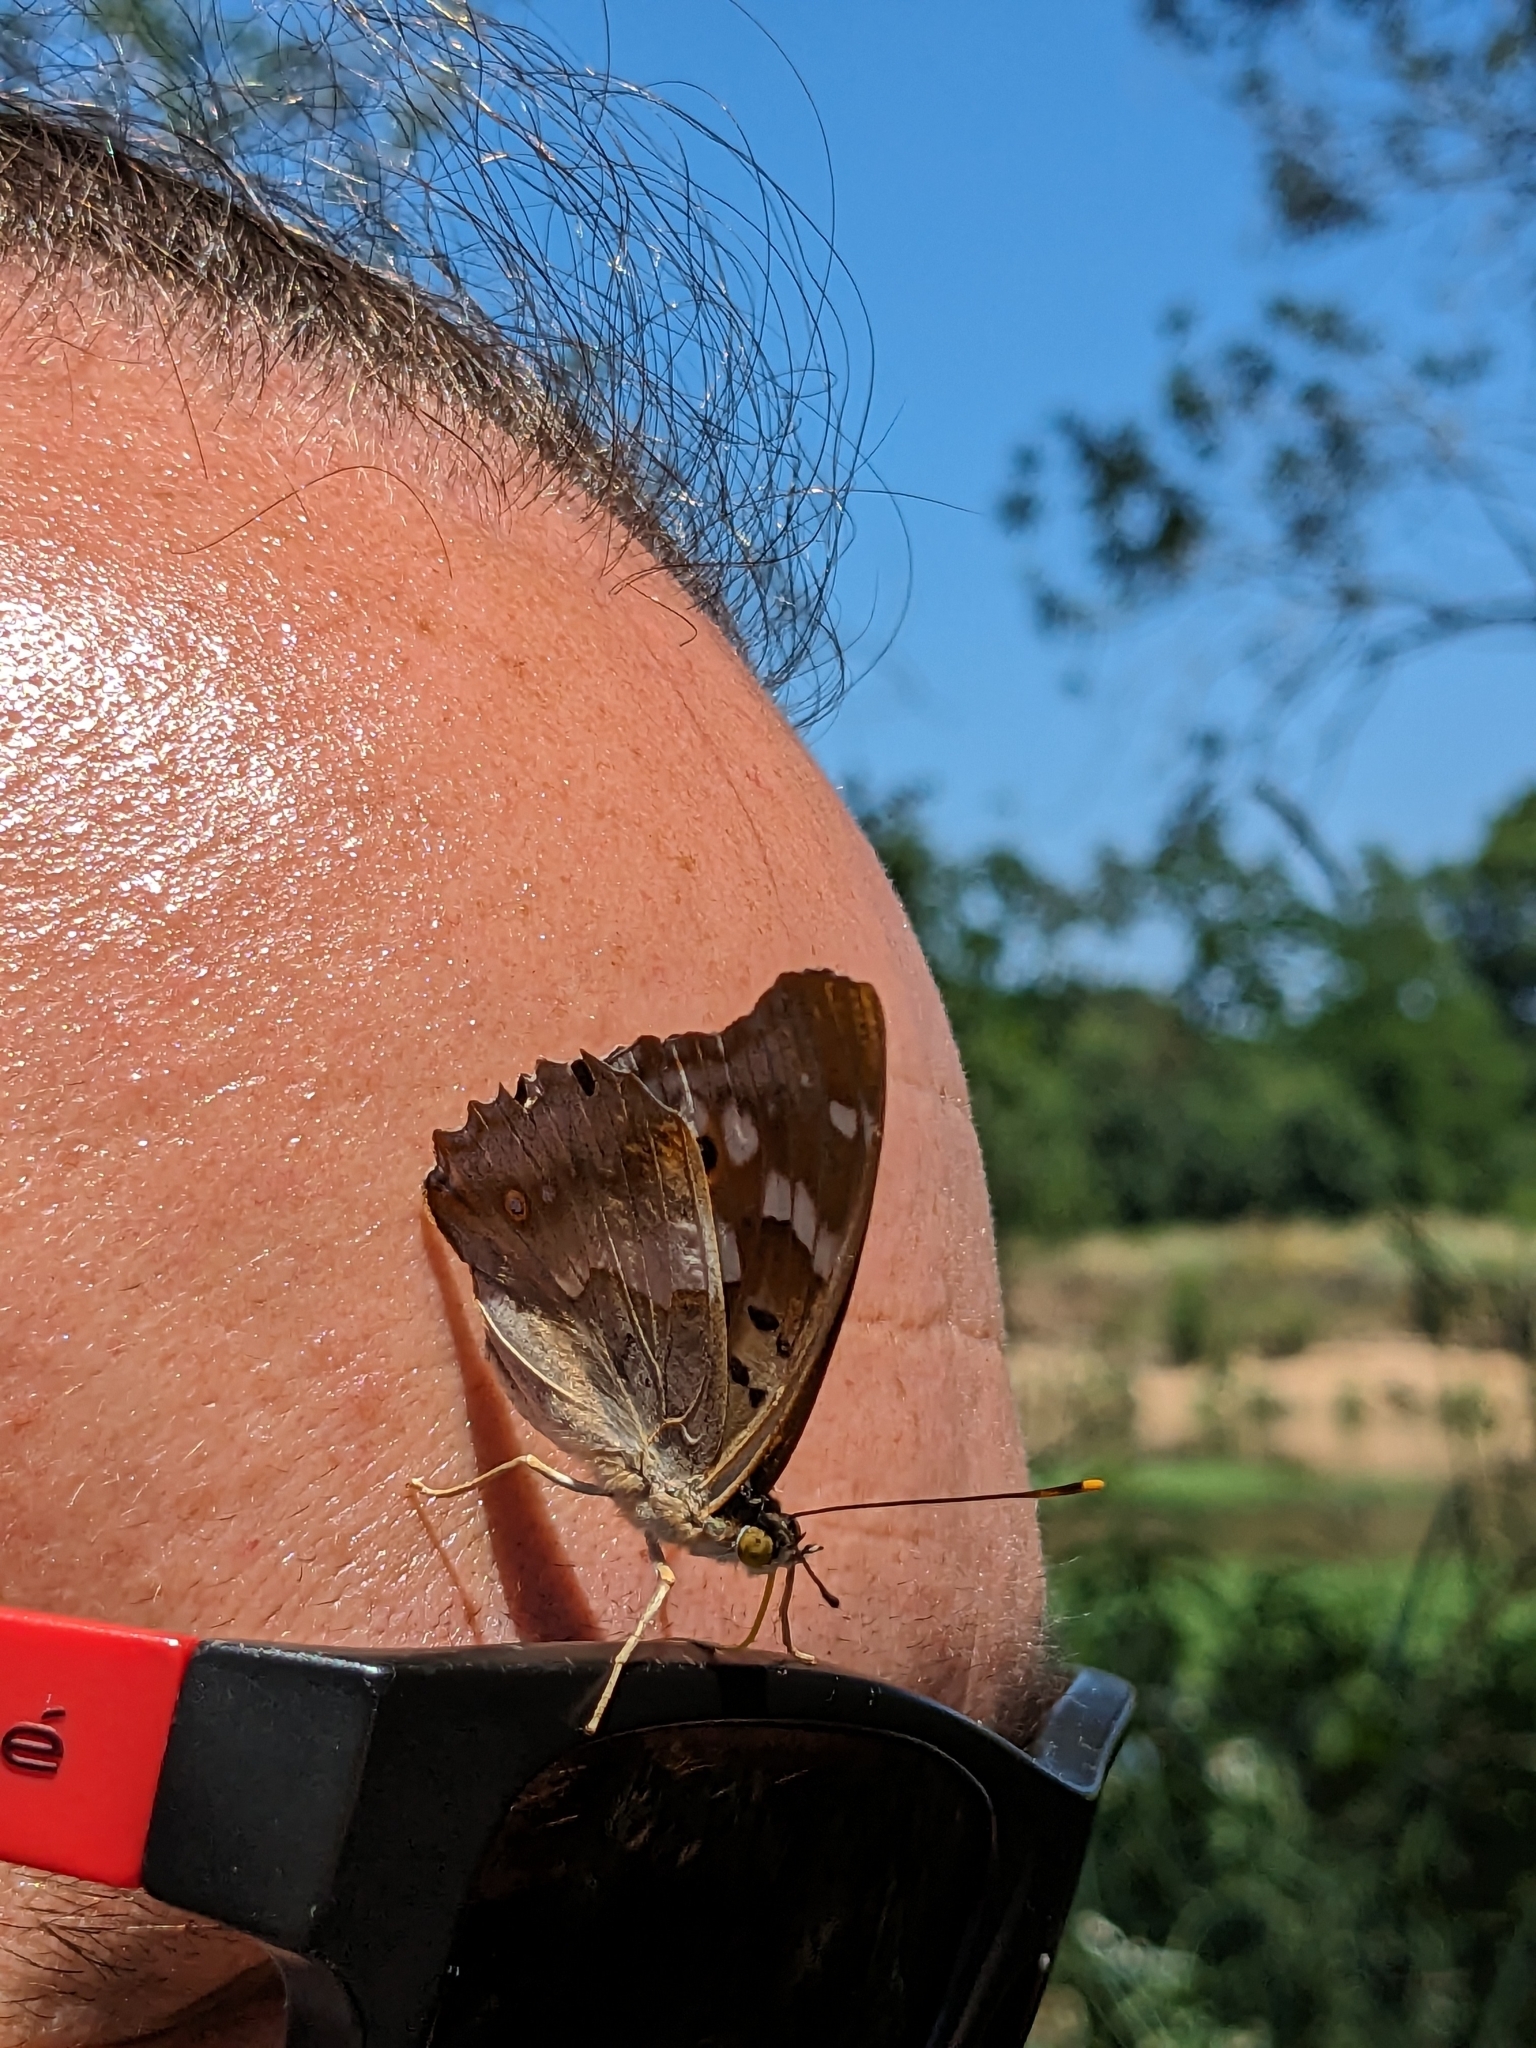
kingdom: Animalia
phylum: Arthropoda
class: Insecta
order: Lepidoptera
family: Nymphalidae
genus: Apatura
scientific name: Apatura ilia
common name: Lesser purple emperor
